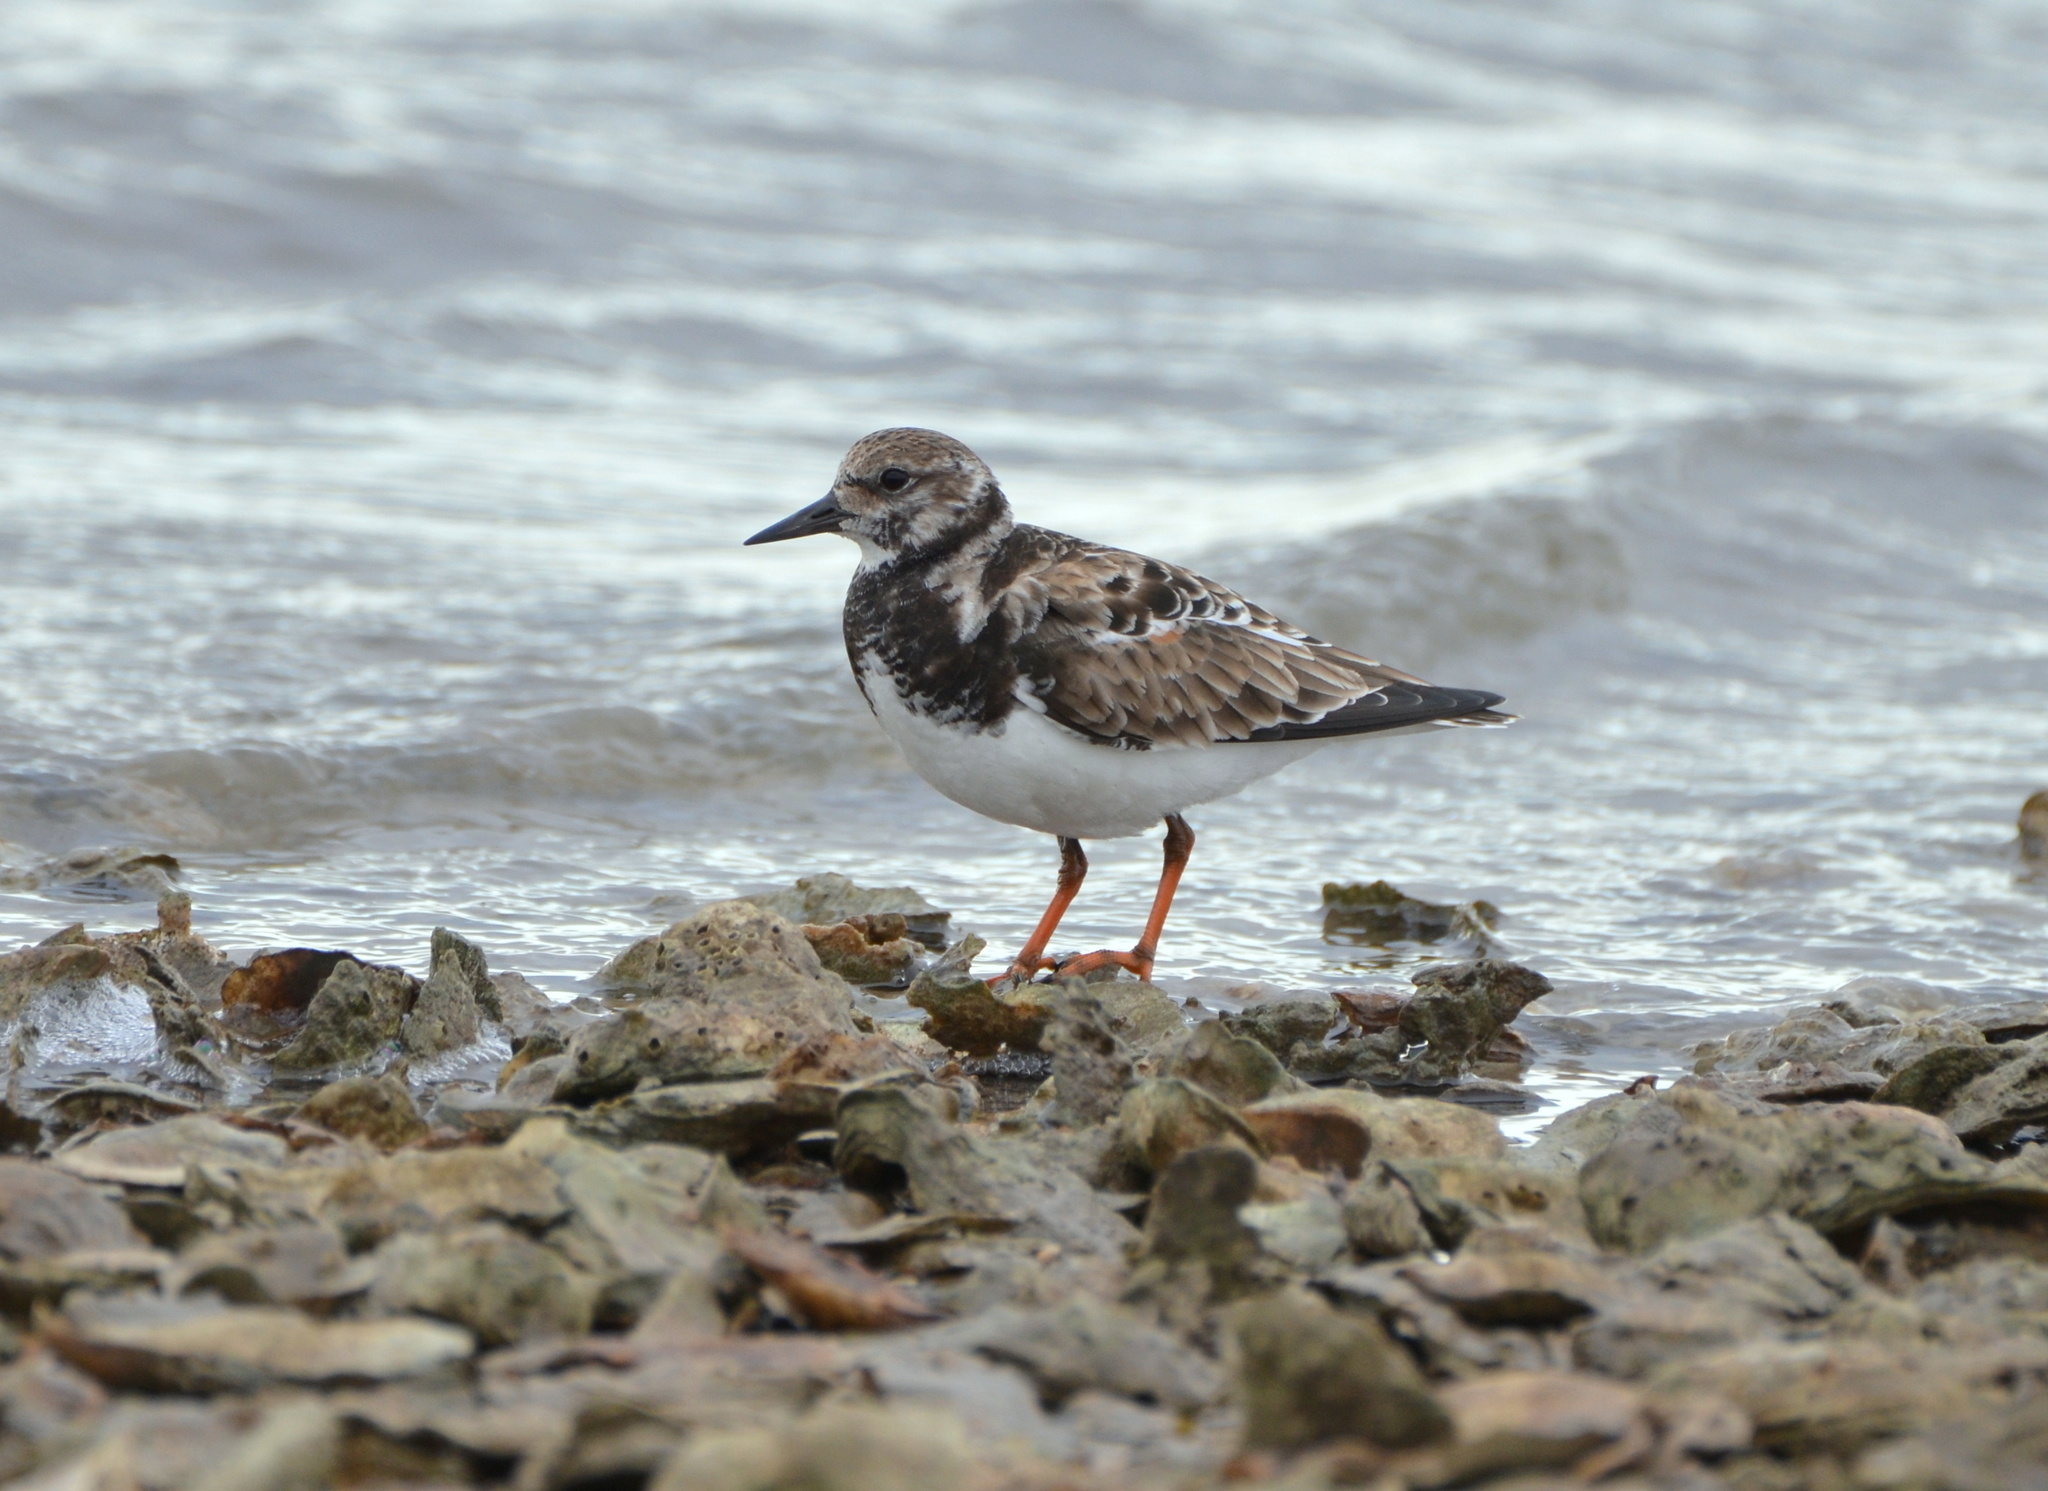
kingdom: Animalia
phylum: Chordata
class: Aves
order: Charadriiformes
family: Scolopacidae
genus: Arenaria
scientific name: Arenaria interpres
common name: Ruddy turnstone
